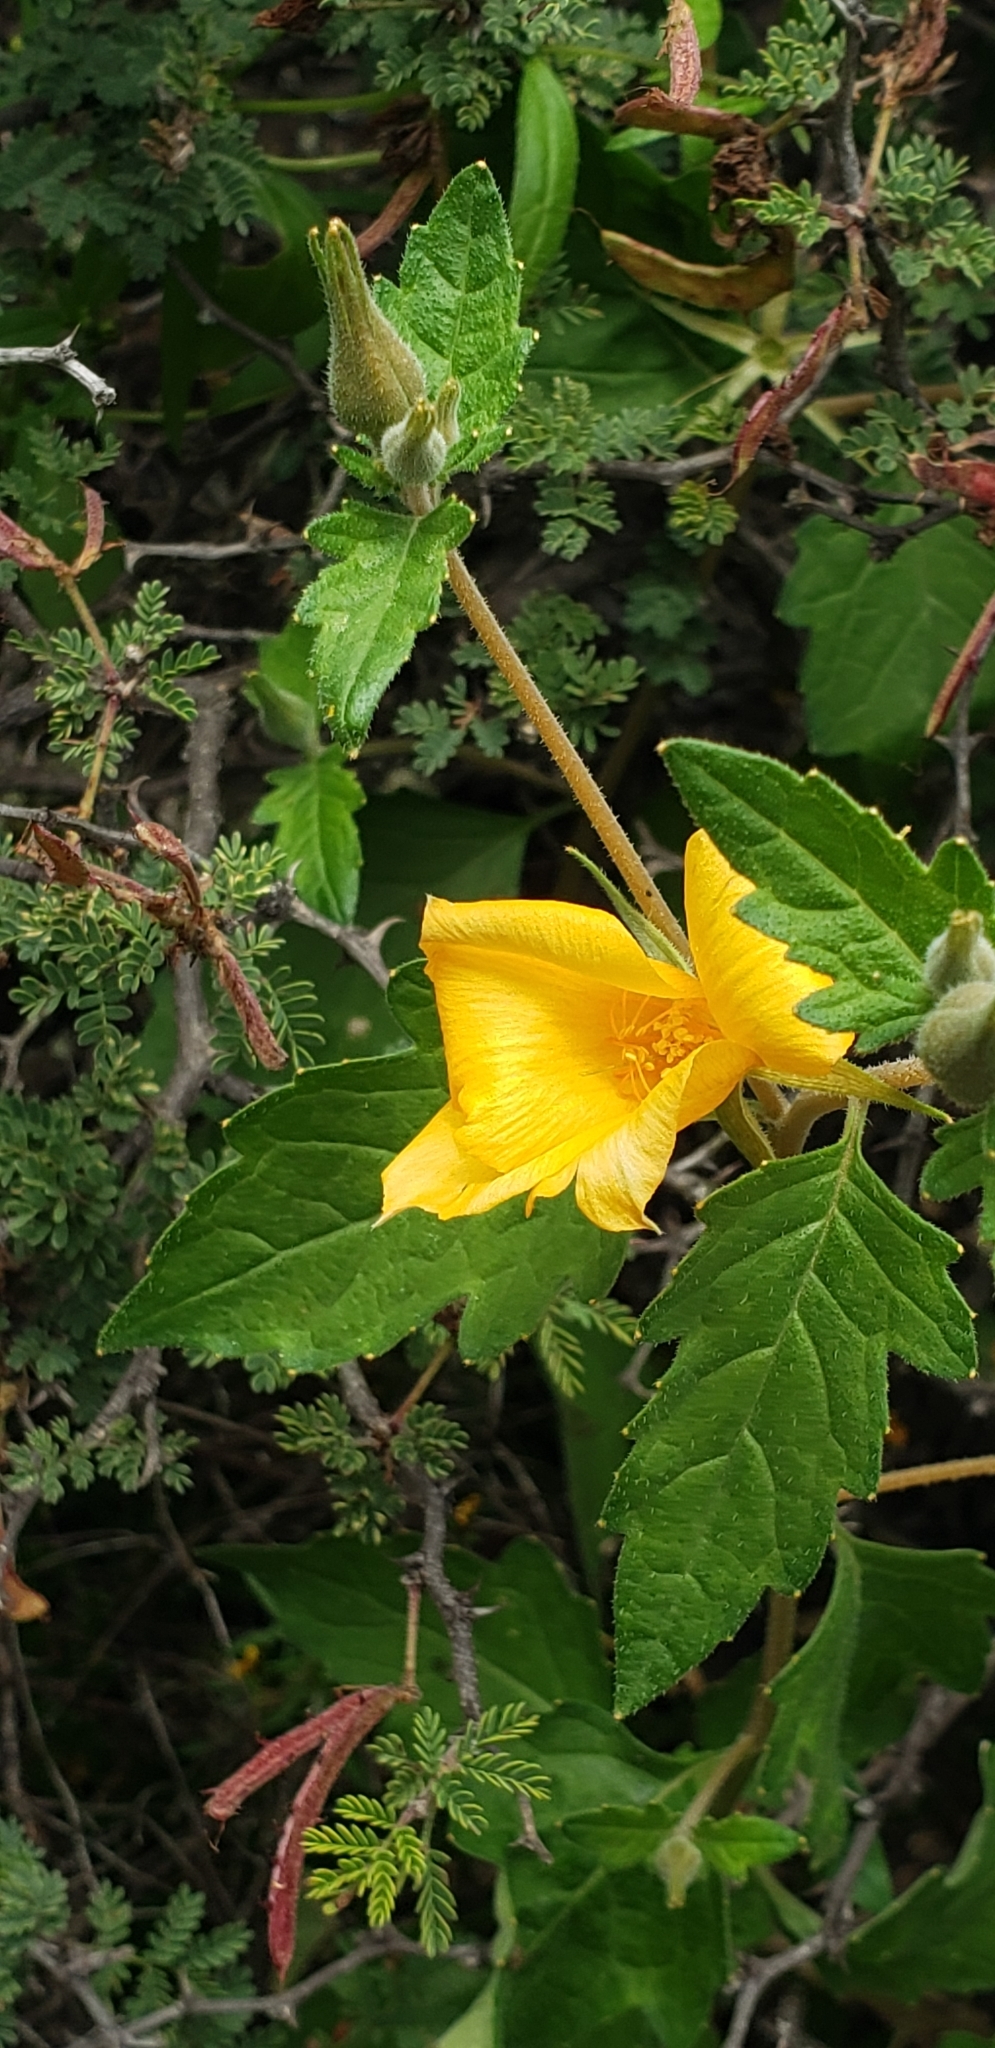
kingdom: Plantae
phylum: Tracheophyta
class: Magnoliopsida
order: Cornales
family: Loasaceae
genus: Mentzelia
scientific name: Mentzelia hispida
